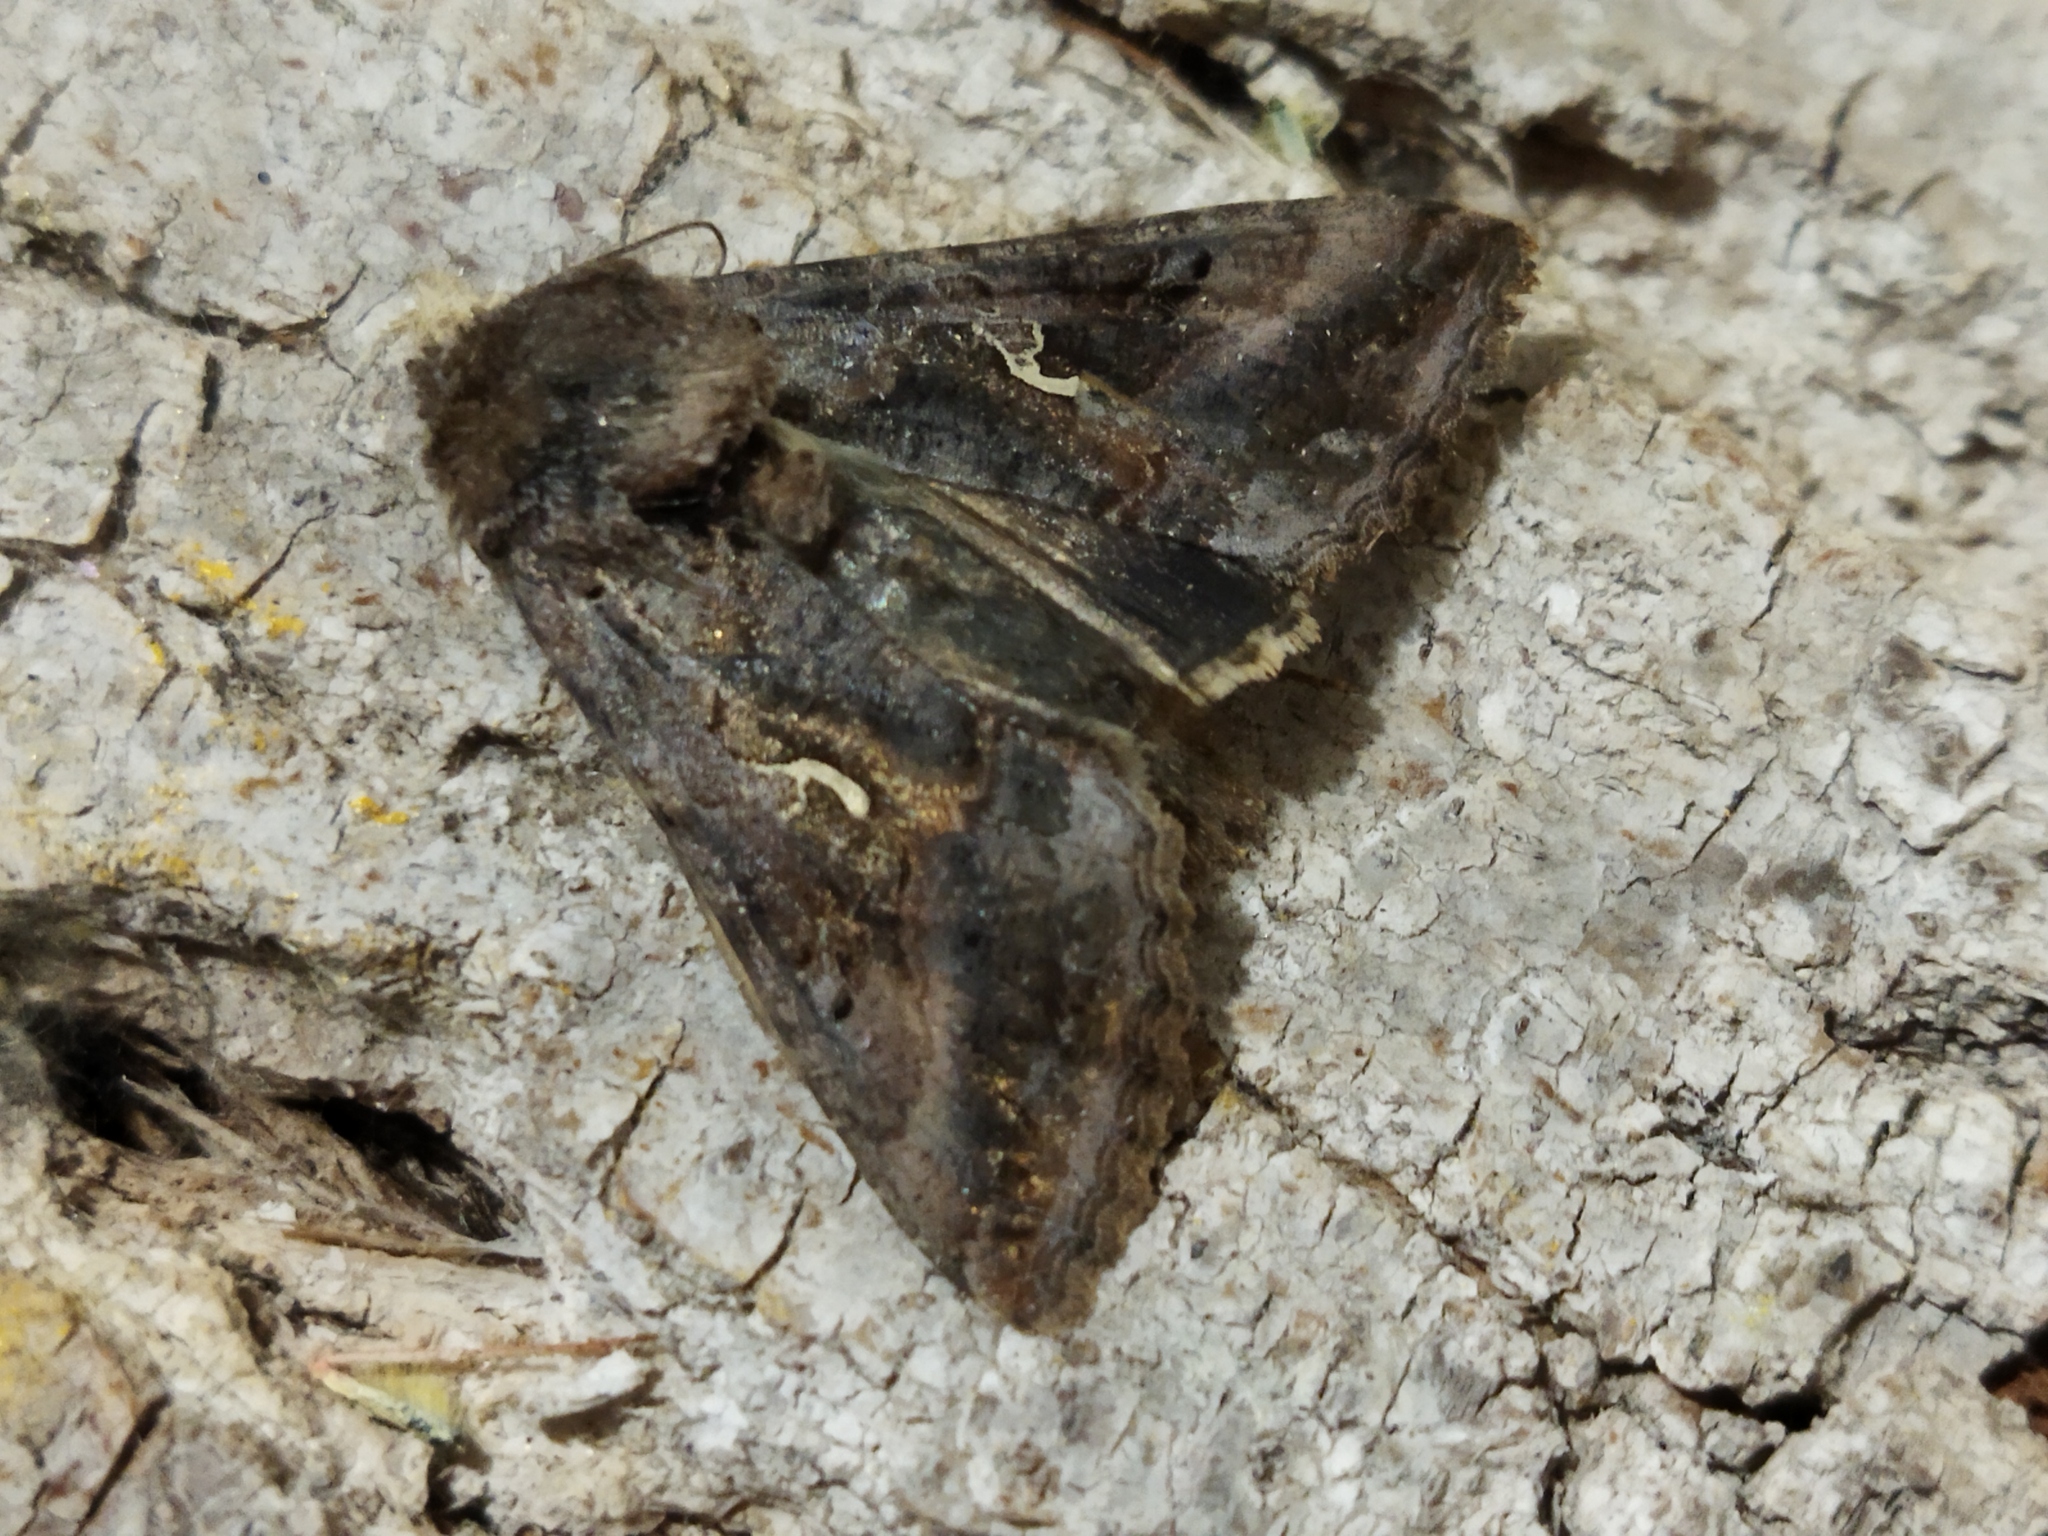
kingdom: Animalia
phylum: Arthropoda
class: Insecta
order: Lepidoptera
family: Noctuidae
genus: Autographa
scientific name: Autographa gamma
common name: Silver y
